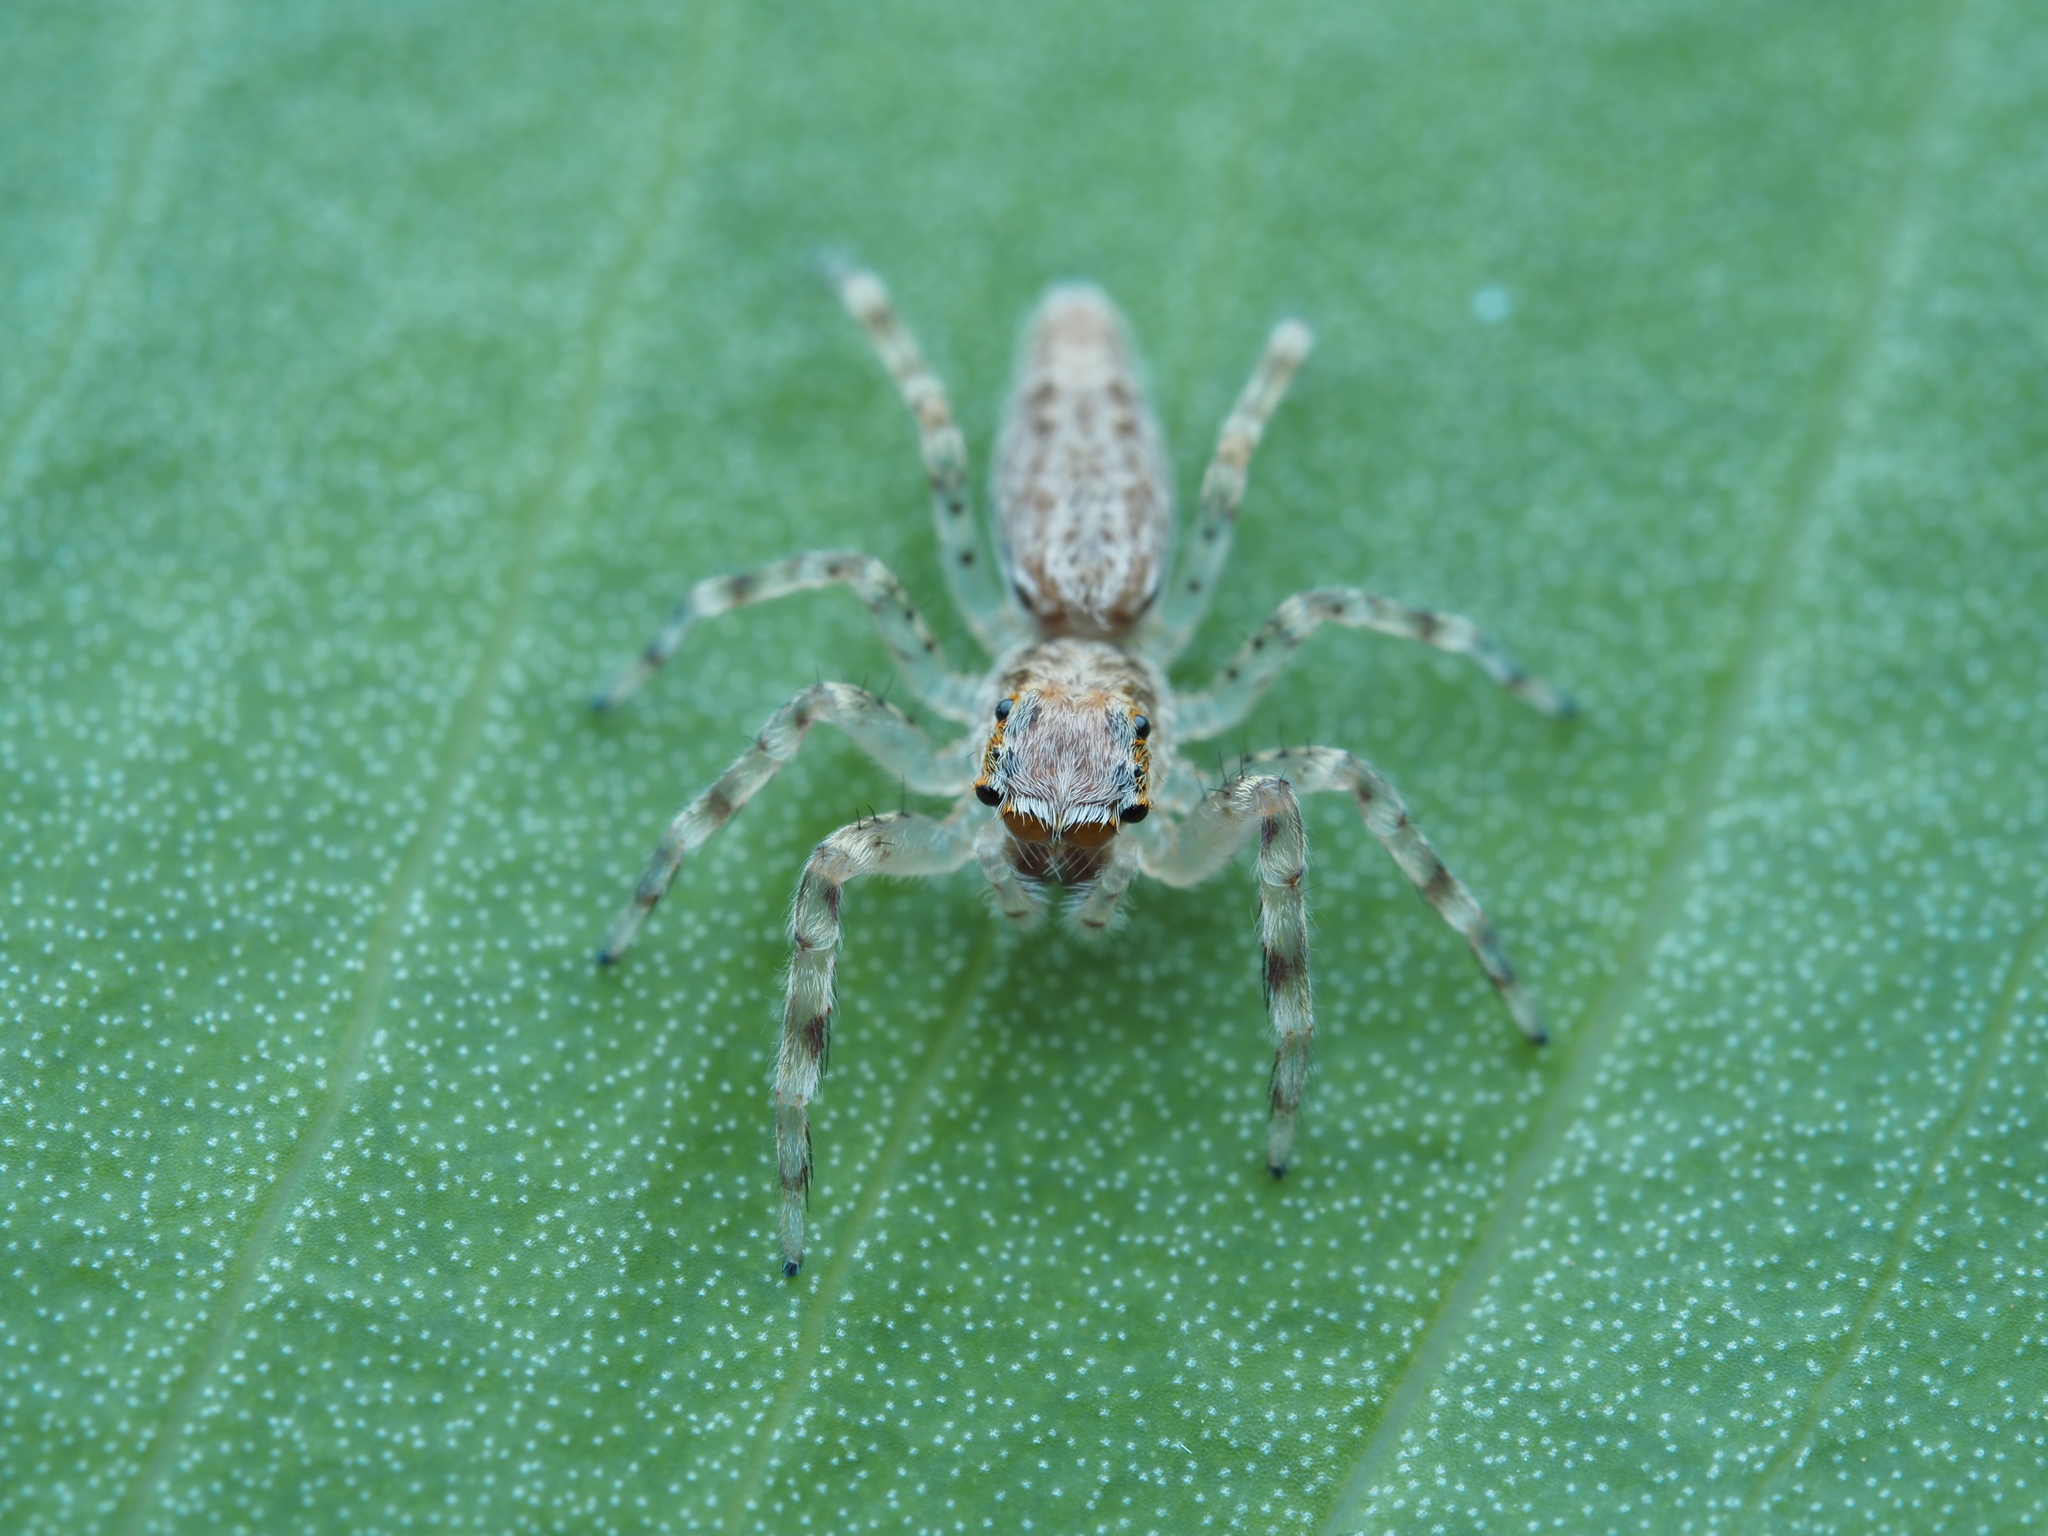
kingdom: Animalia
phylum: Arthropoda
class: Arachnida
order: Araneae
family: Salticidae
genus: Helpis
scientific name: Helpis minitabunda
